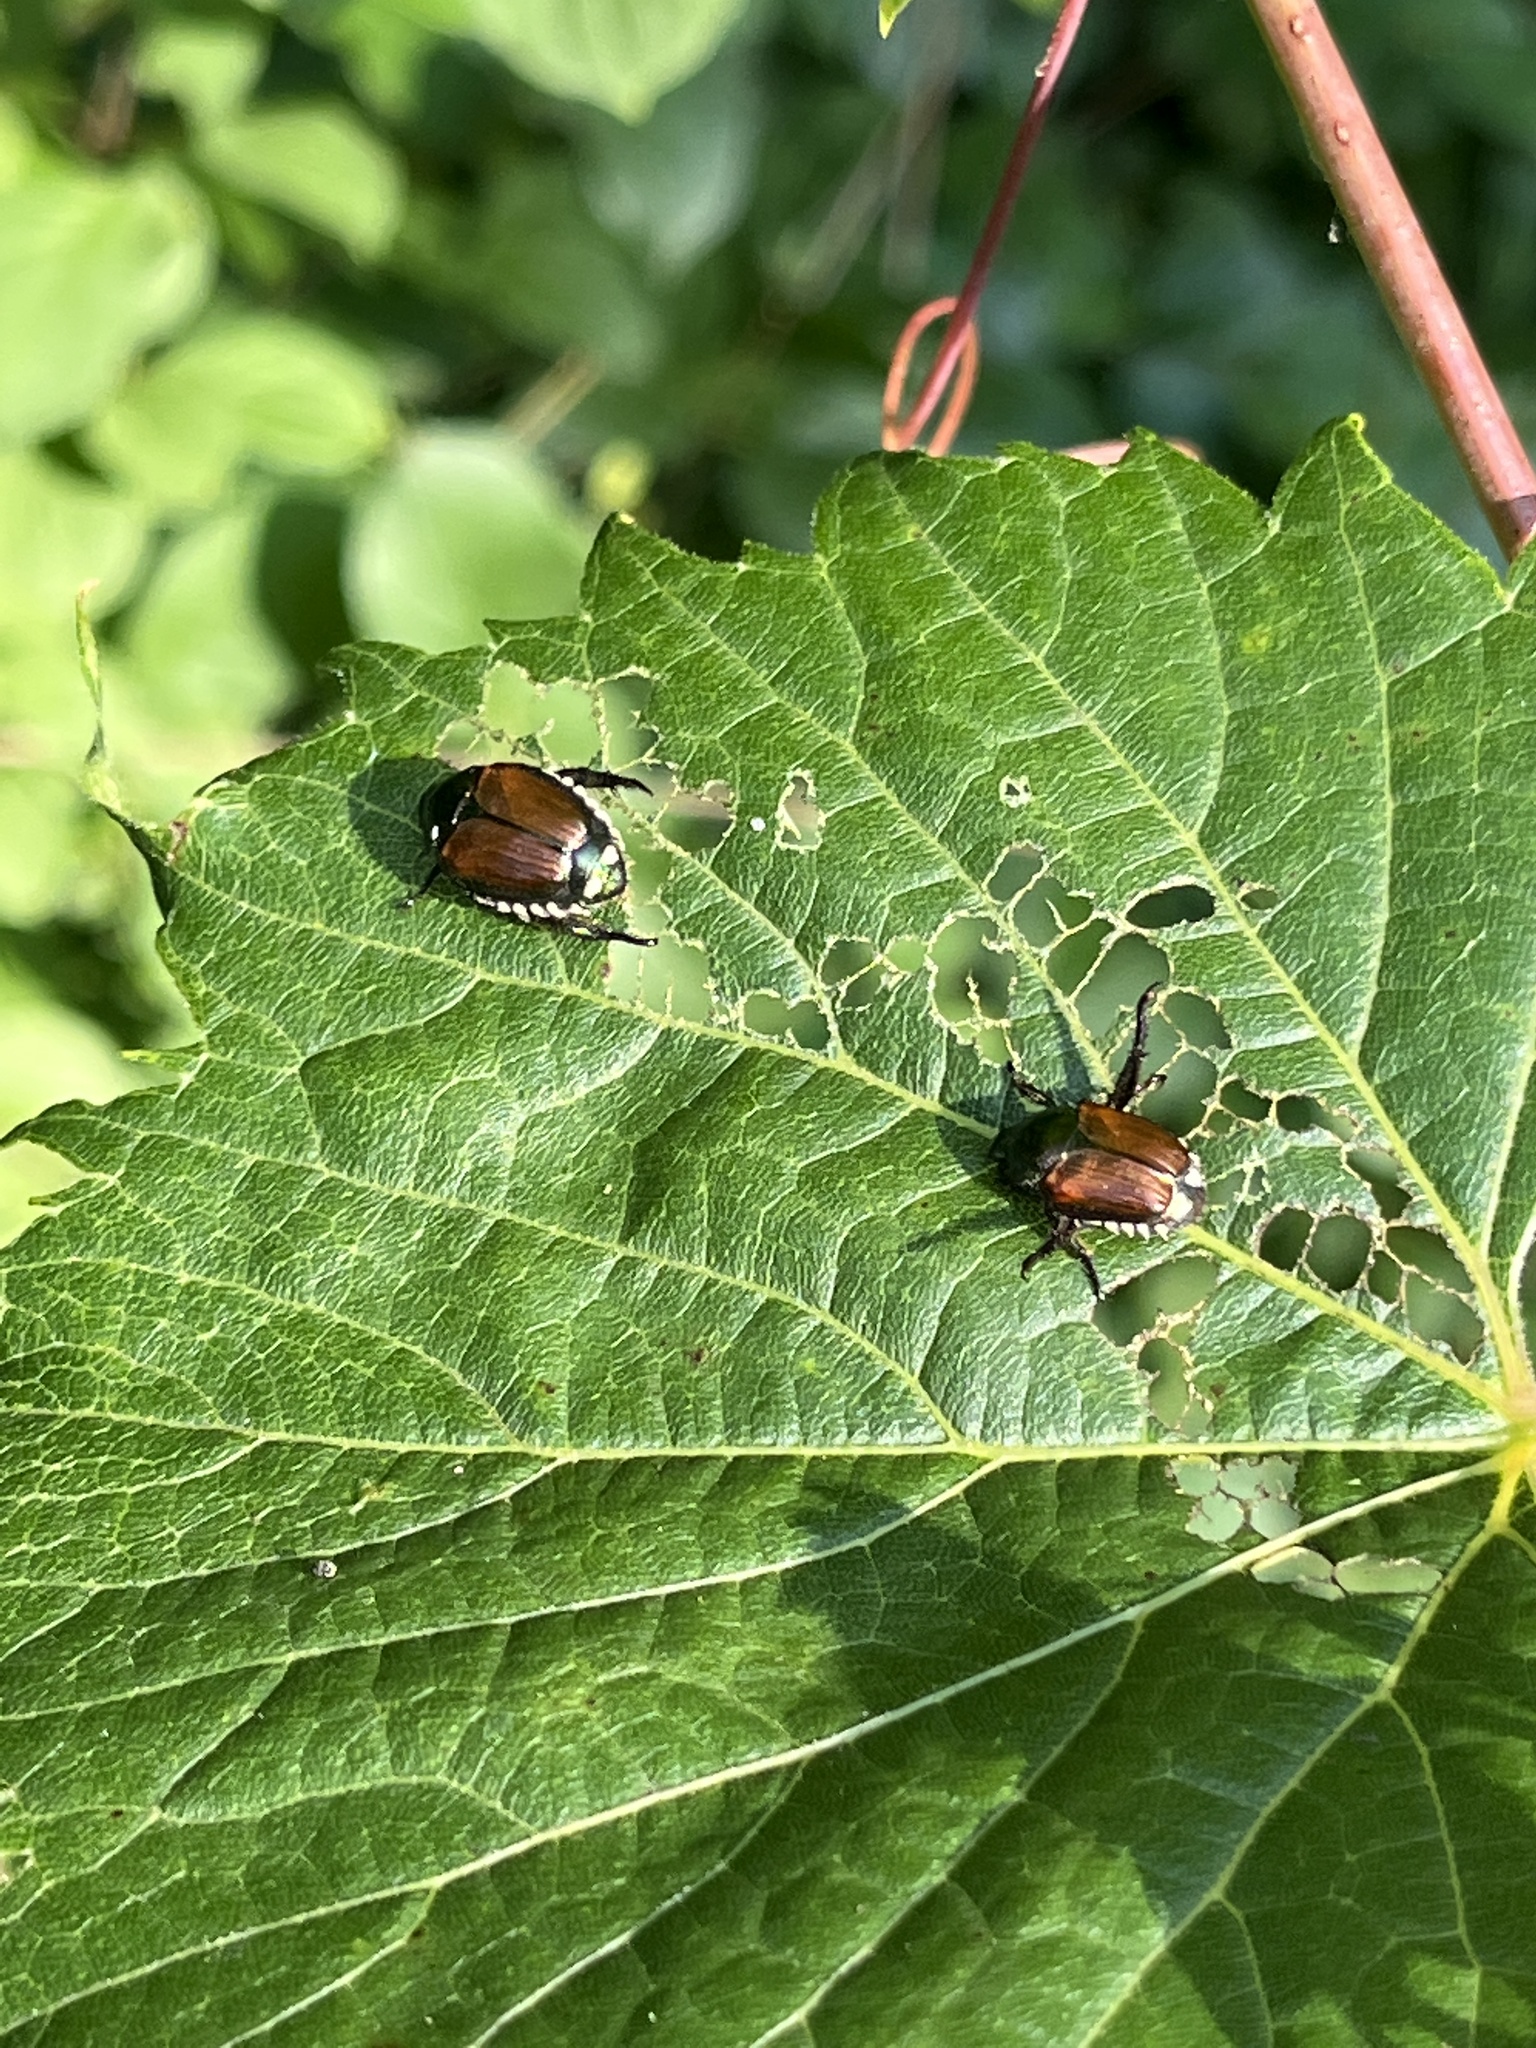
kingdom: Animalia
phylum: Arthropoda
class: Insecta
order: Coleoptera
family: Scarabaeidae
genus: Popillia
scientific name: Popillia japonica
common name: Japanese beetle
